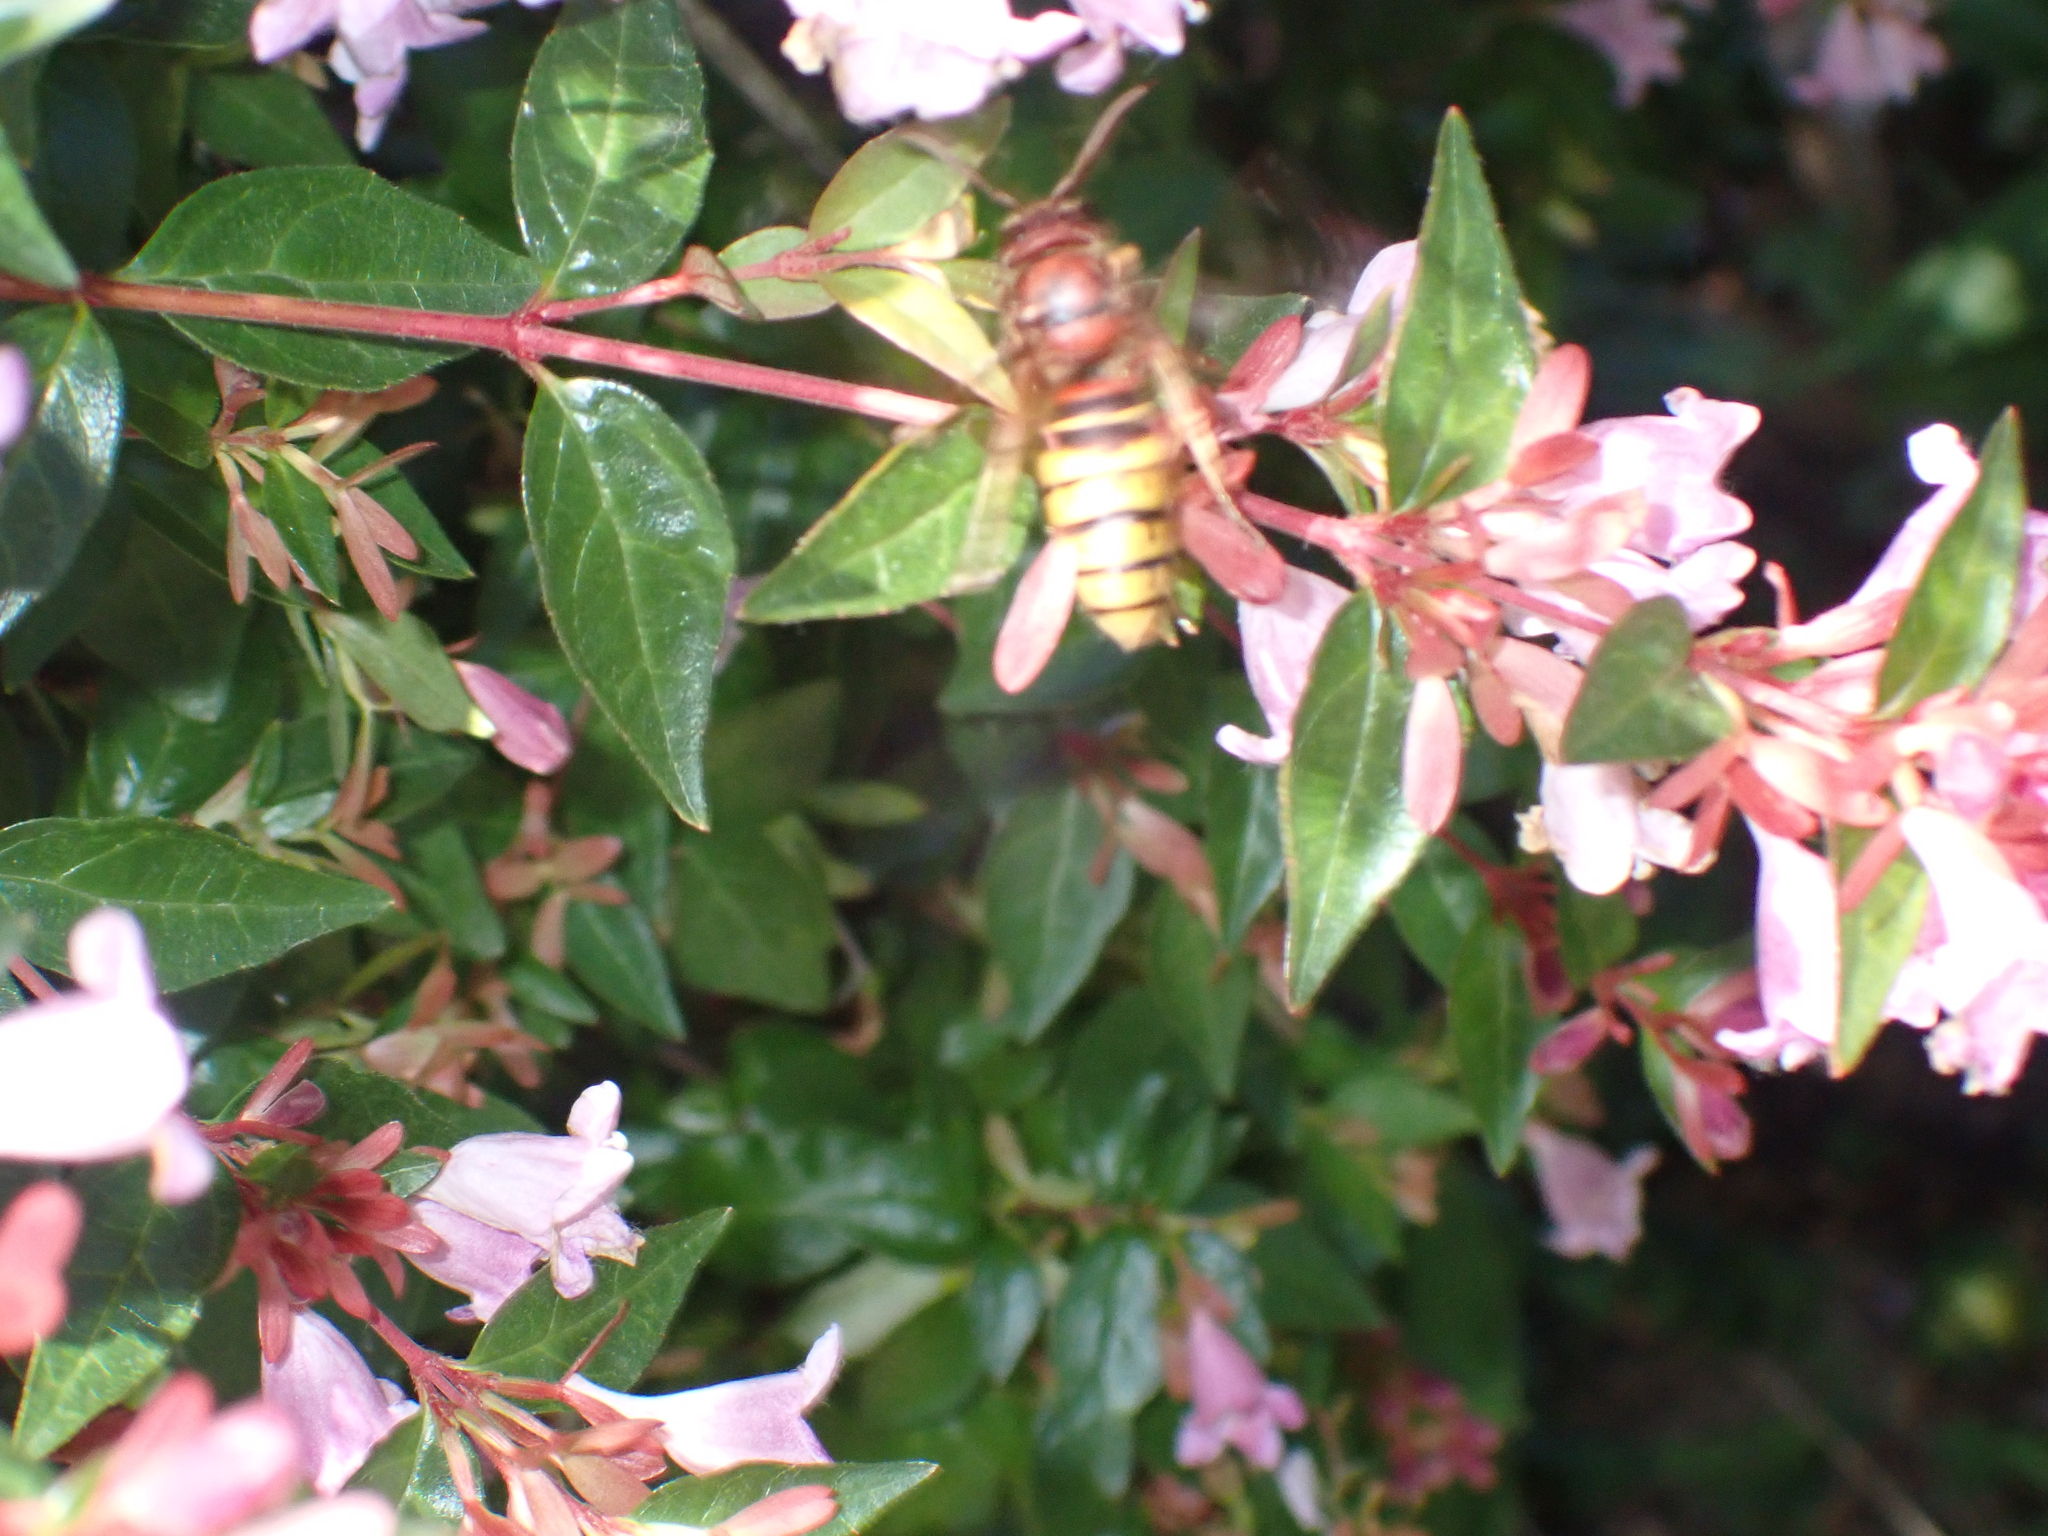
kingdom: Animalia
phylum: Arthropoda
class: Insecta
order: Hymenoptera
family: Vespidae
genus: Vespa
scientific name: Vespa crabro
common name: Hornet
